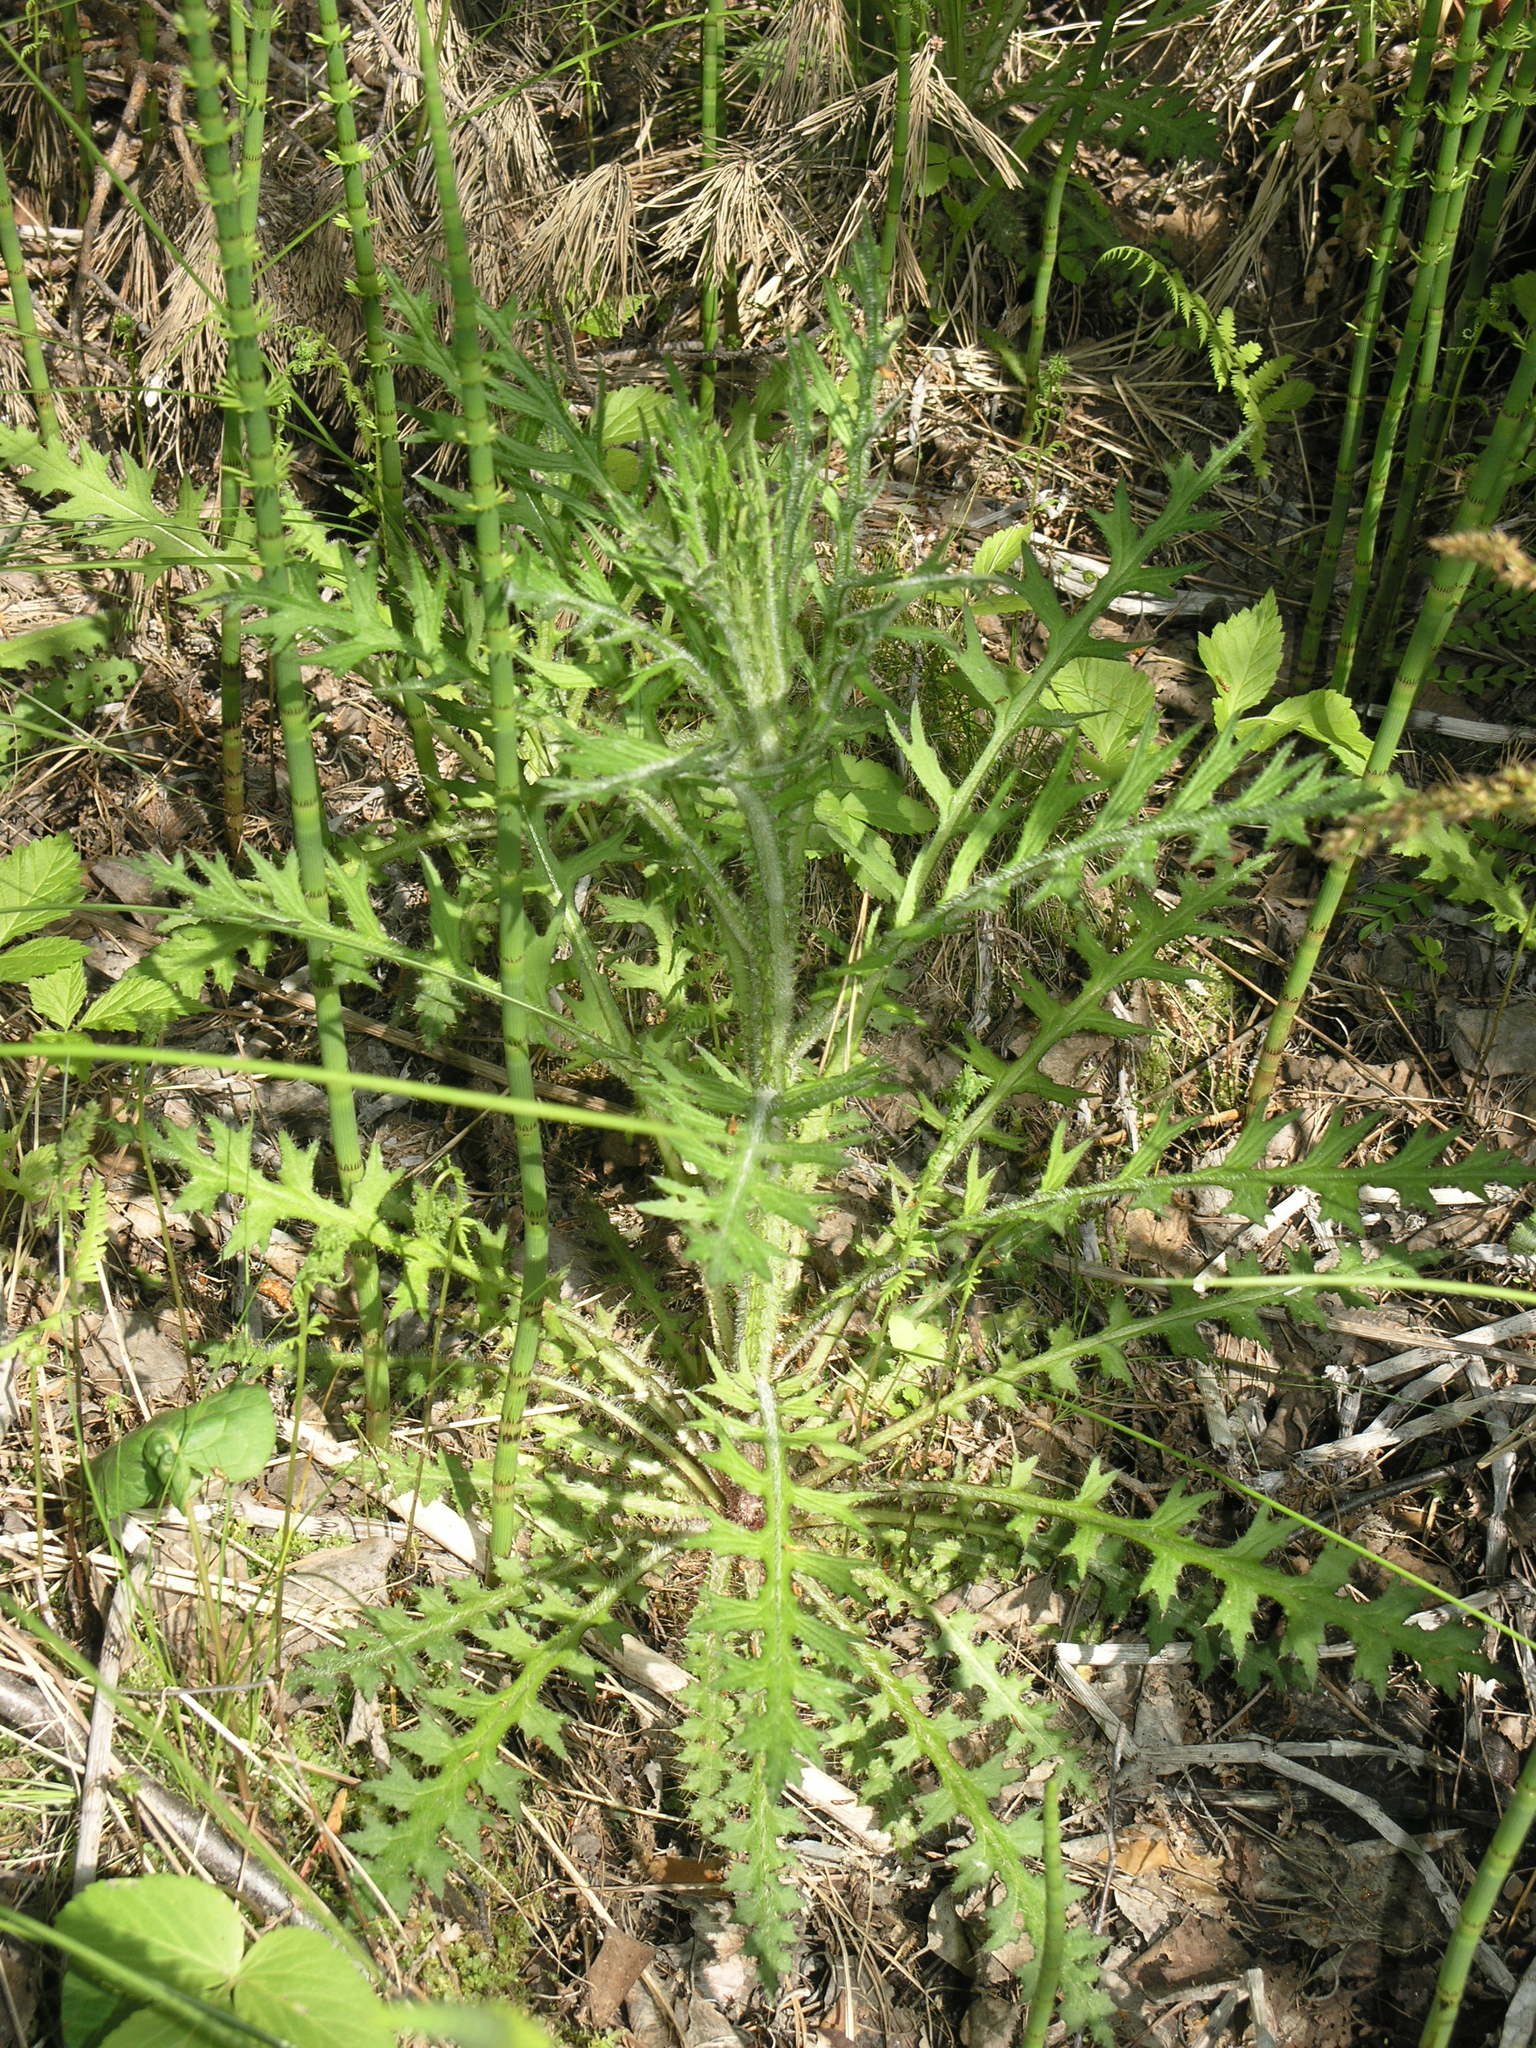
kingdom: Plantae
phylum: Tracheophyta
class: Magnoliopsida
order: Asterales
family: Asteraceae
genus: Cirsium
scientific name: Cirsium palustre
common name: Marsh thistle
